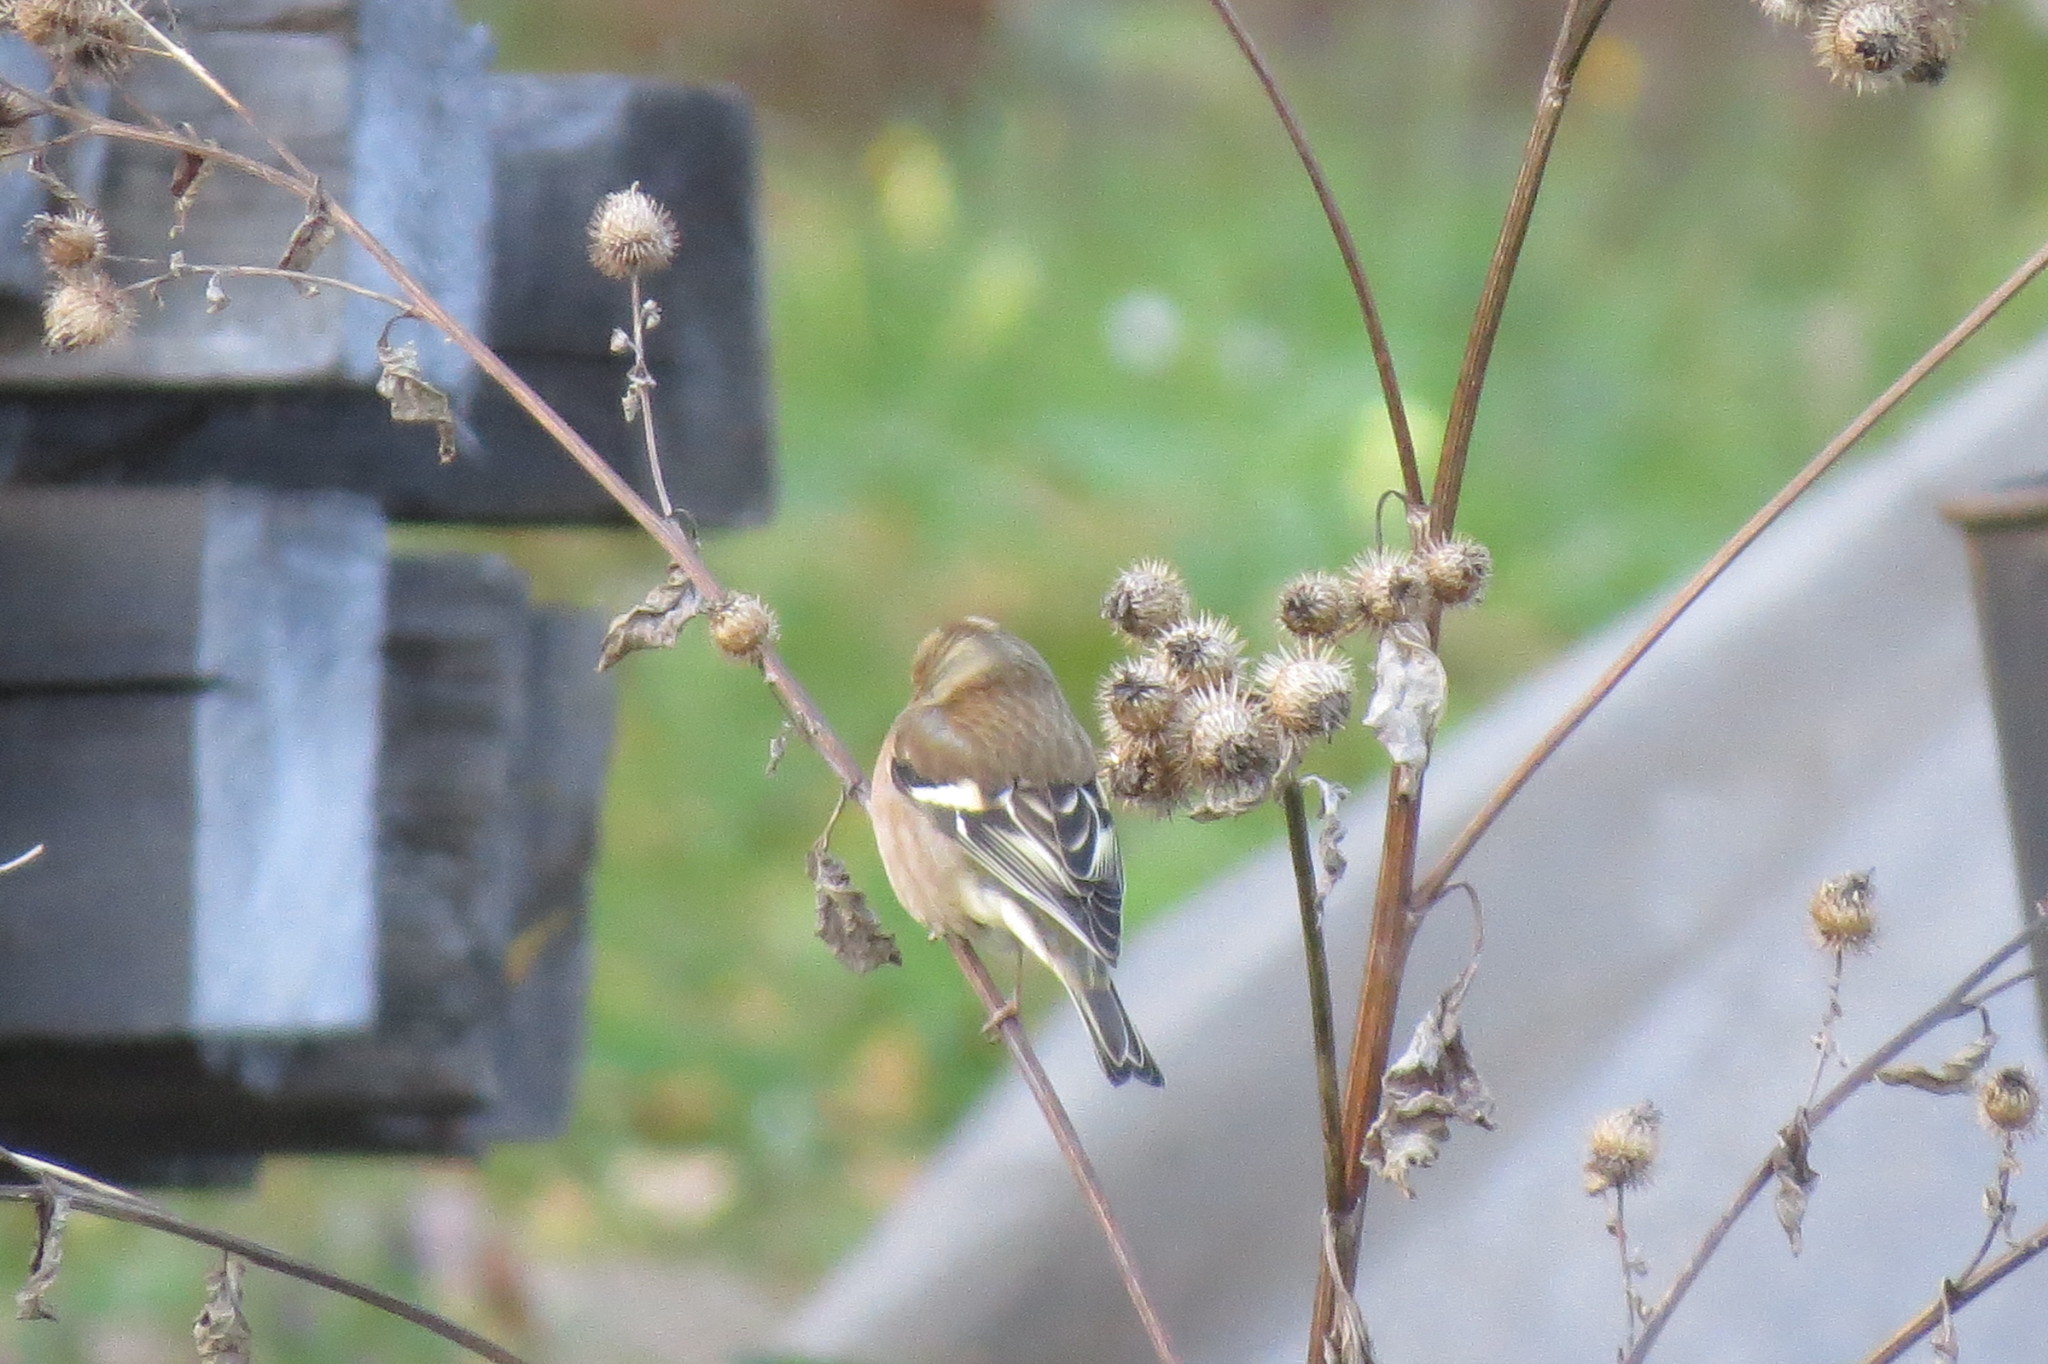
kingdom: Animalia
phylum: Chordata
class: Aves
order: Passeriformes
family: Fringillidae
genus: Fringilla
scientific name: Fringilla coelebs
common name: Common chaffinch
